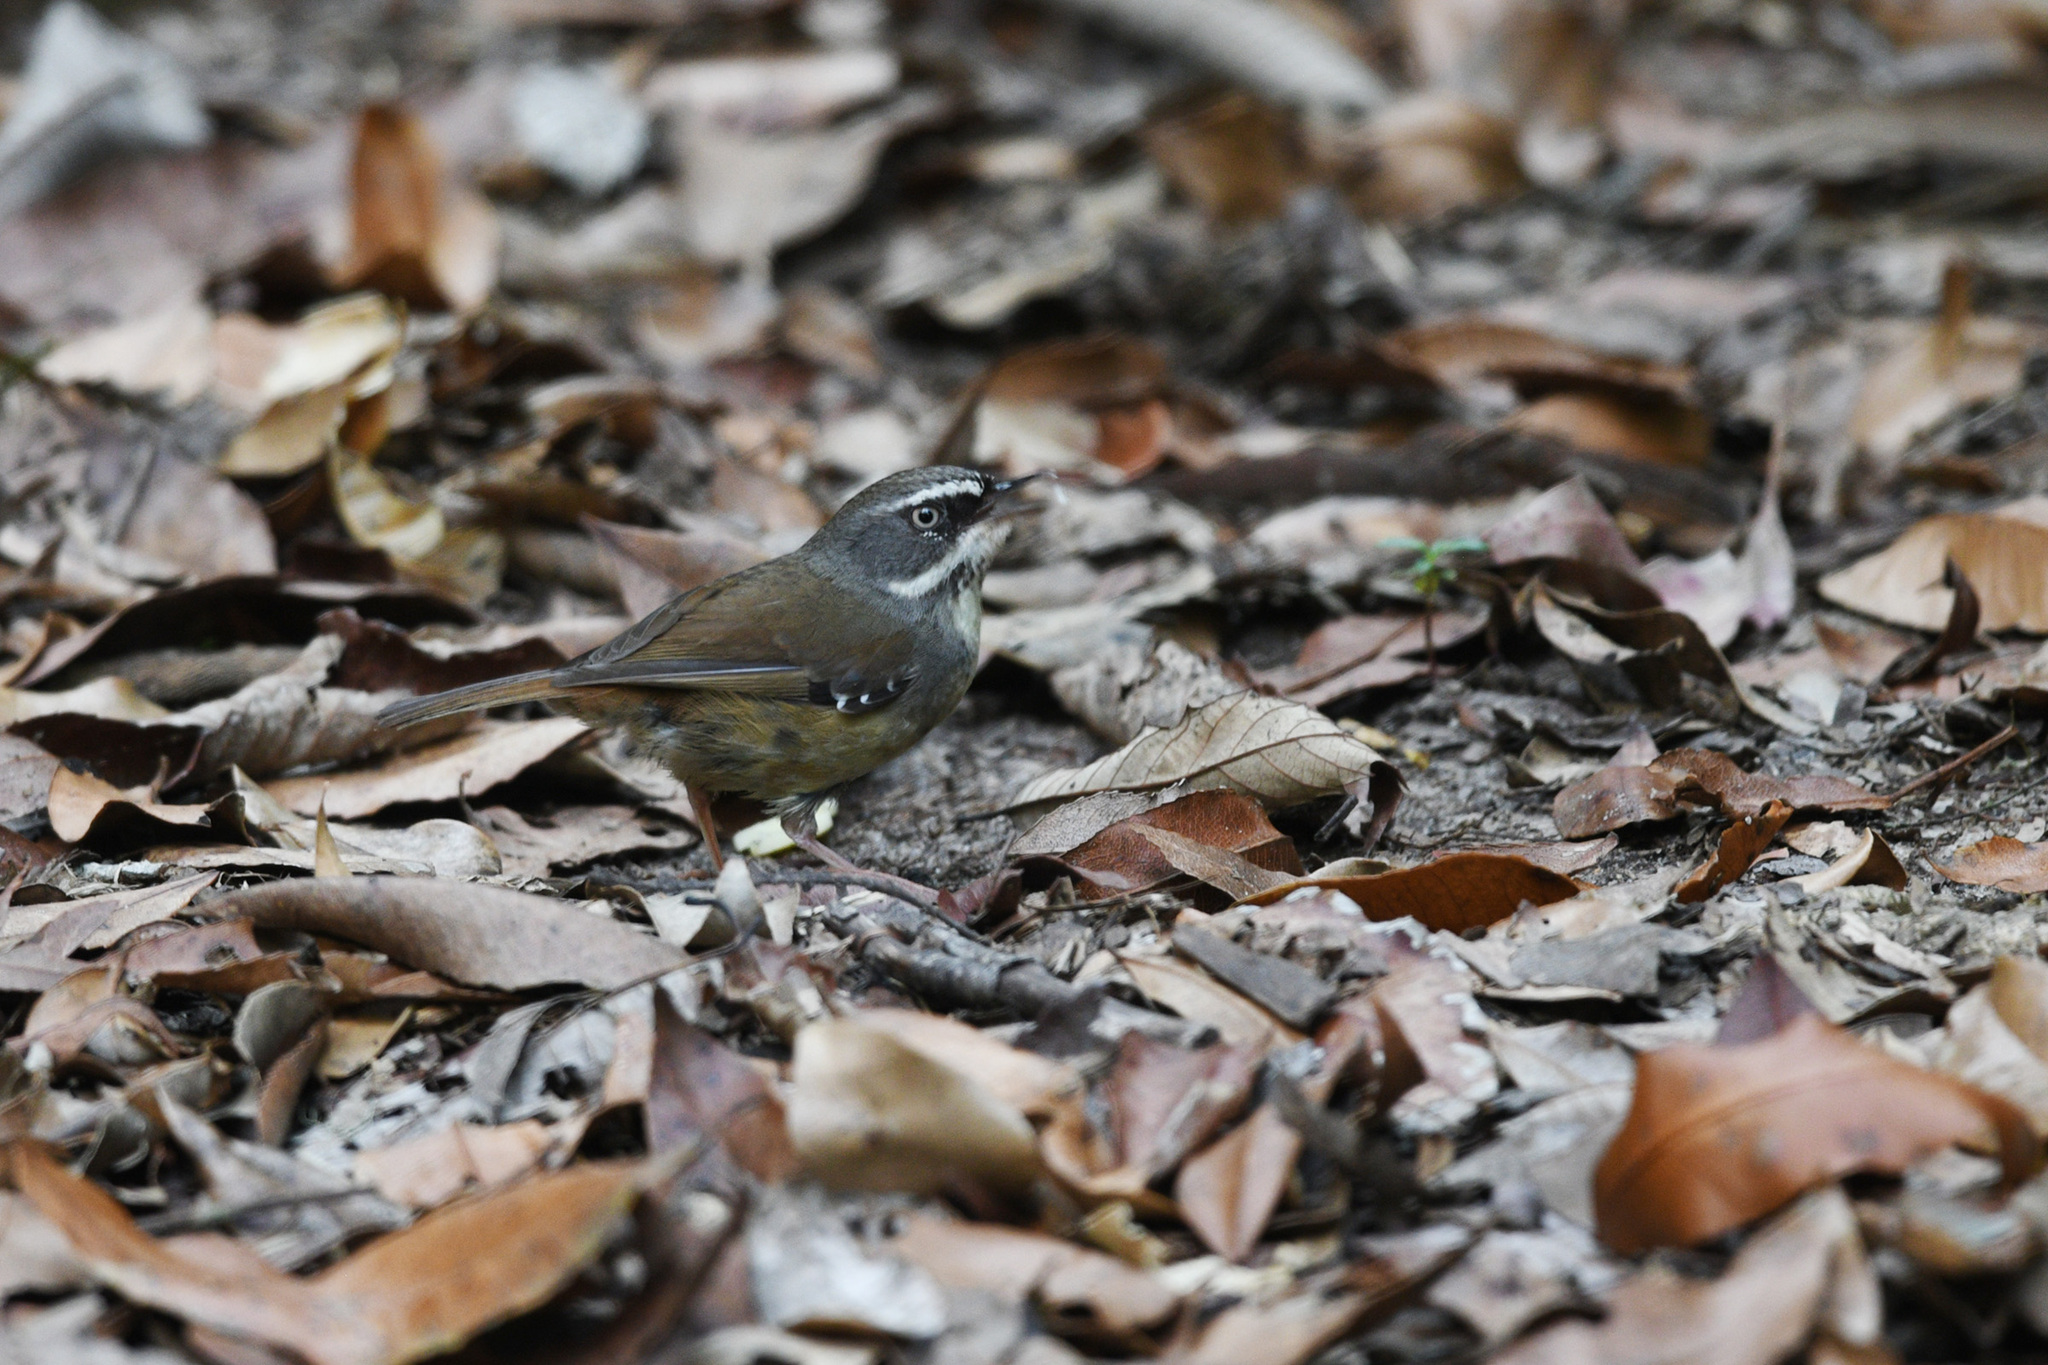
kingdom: Animalia
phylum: Chordata
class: Aves
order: Passeriformes
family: Acanthizidae
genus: Sericornis
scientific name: Sericornis frontalis
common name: White-browed scrubwren
